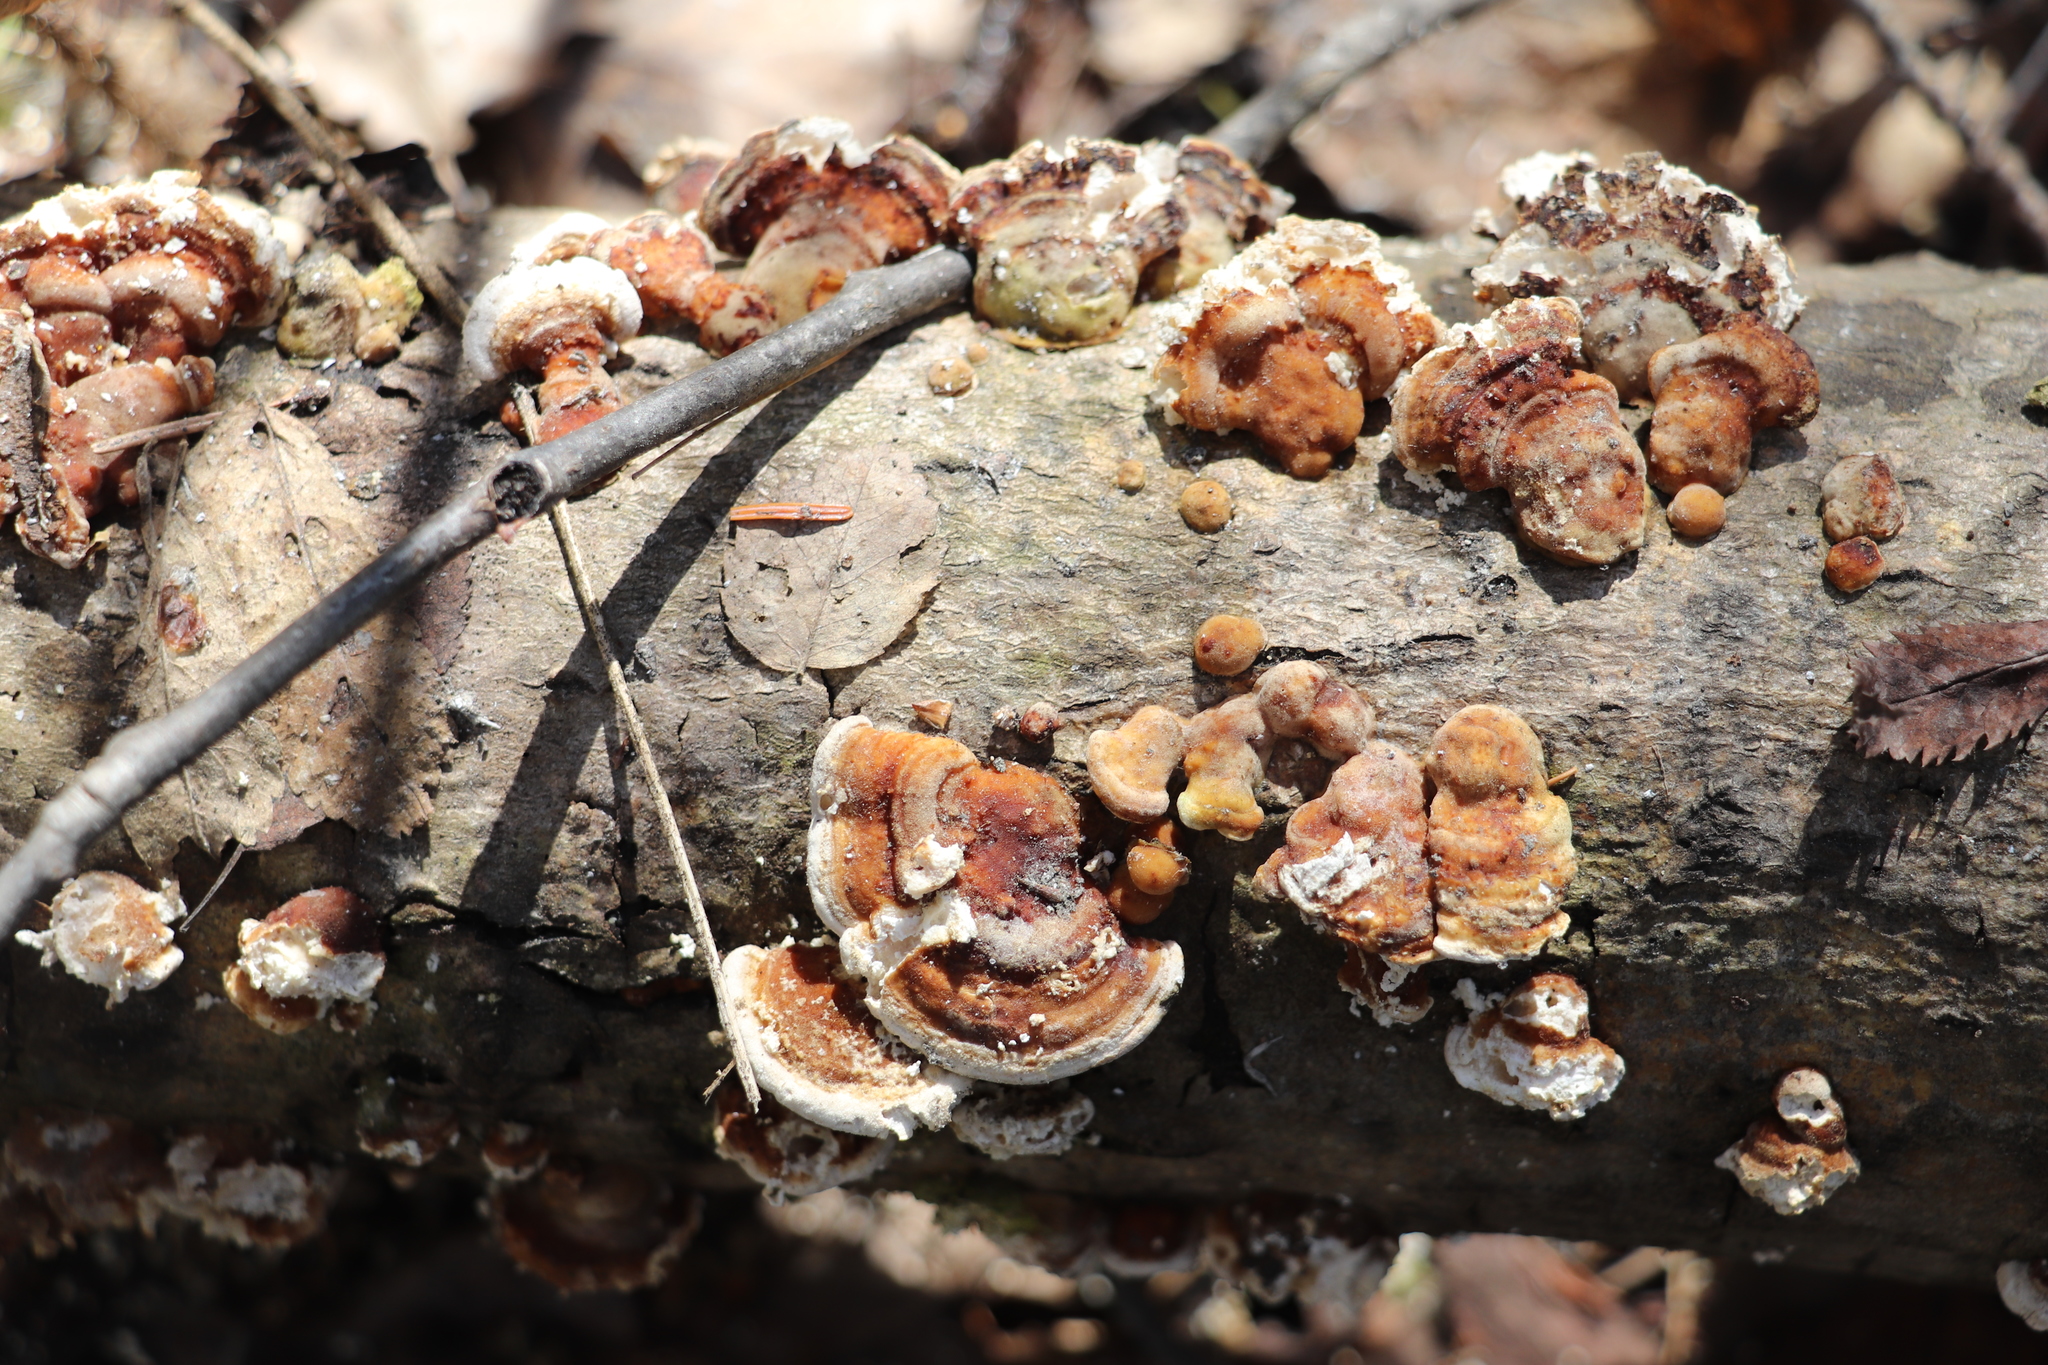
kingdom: Fungi
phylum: Basidiomycota
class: Agaricomycetes
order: Polyporales
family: Polyporaceae
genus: Trametes
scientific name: Trametes ochracea
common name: Ochre bracket
